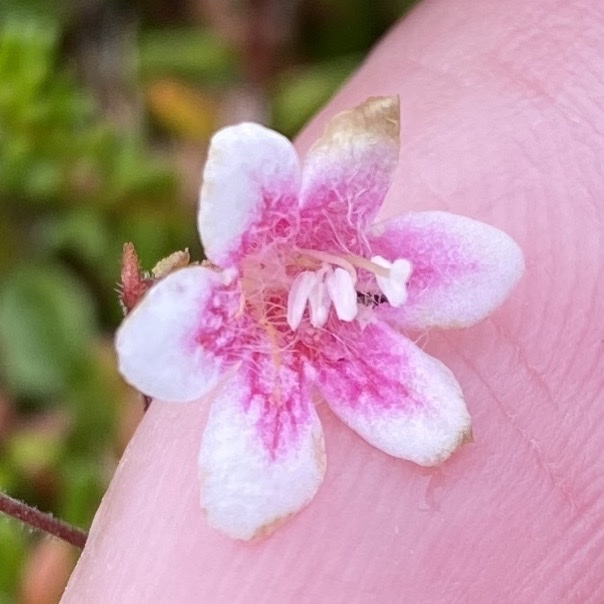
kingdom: Plantae
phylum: Tracheophyta
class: Magnoliopsida
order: Dipsacales
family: Caprifoliaceae
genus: Linnaea
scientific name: Linnaea borealis
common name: Twinflower
